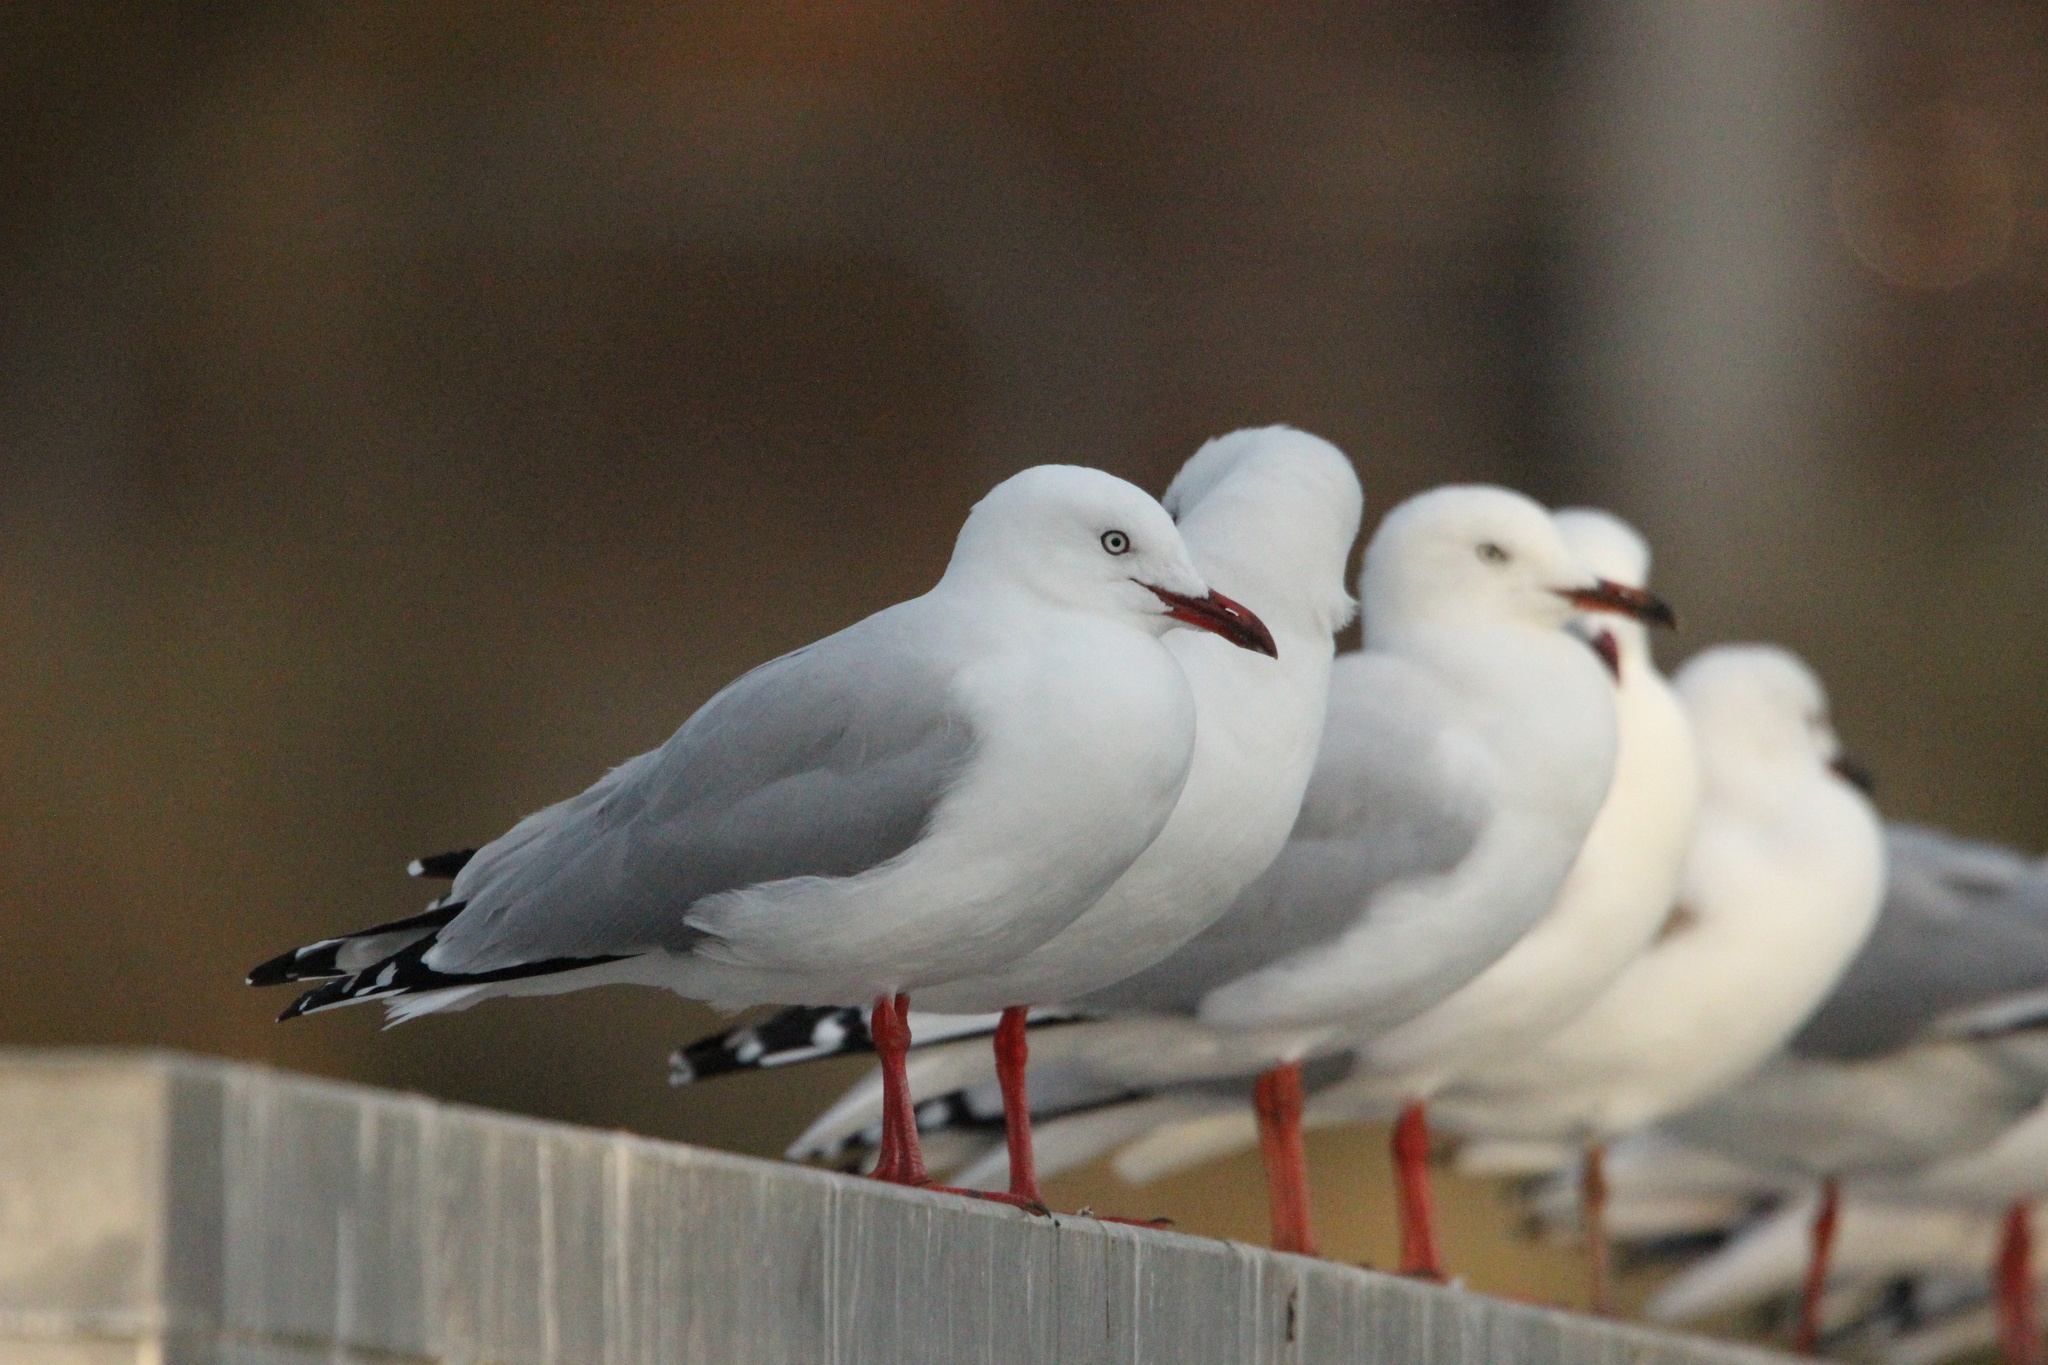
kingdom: Animalia
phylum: Chordata
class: Aves
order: Charadriiformes
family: Laridae
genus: Chroicocephalus
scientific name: Chroicocephalus novaehollandiae
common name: Silver gull
